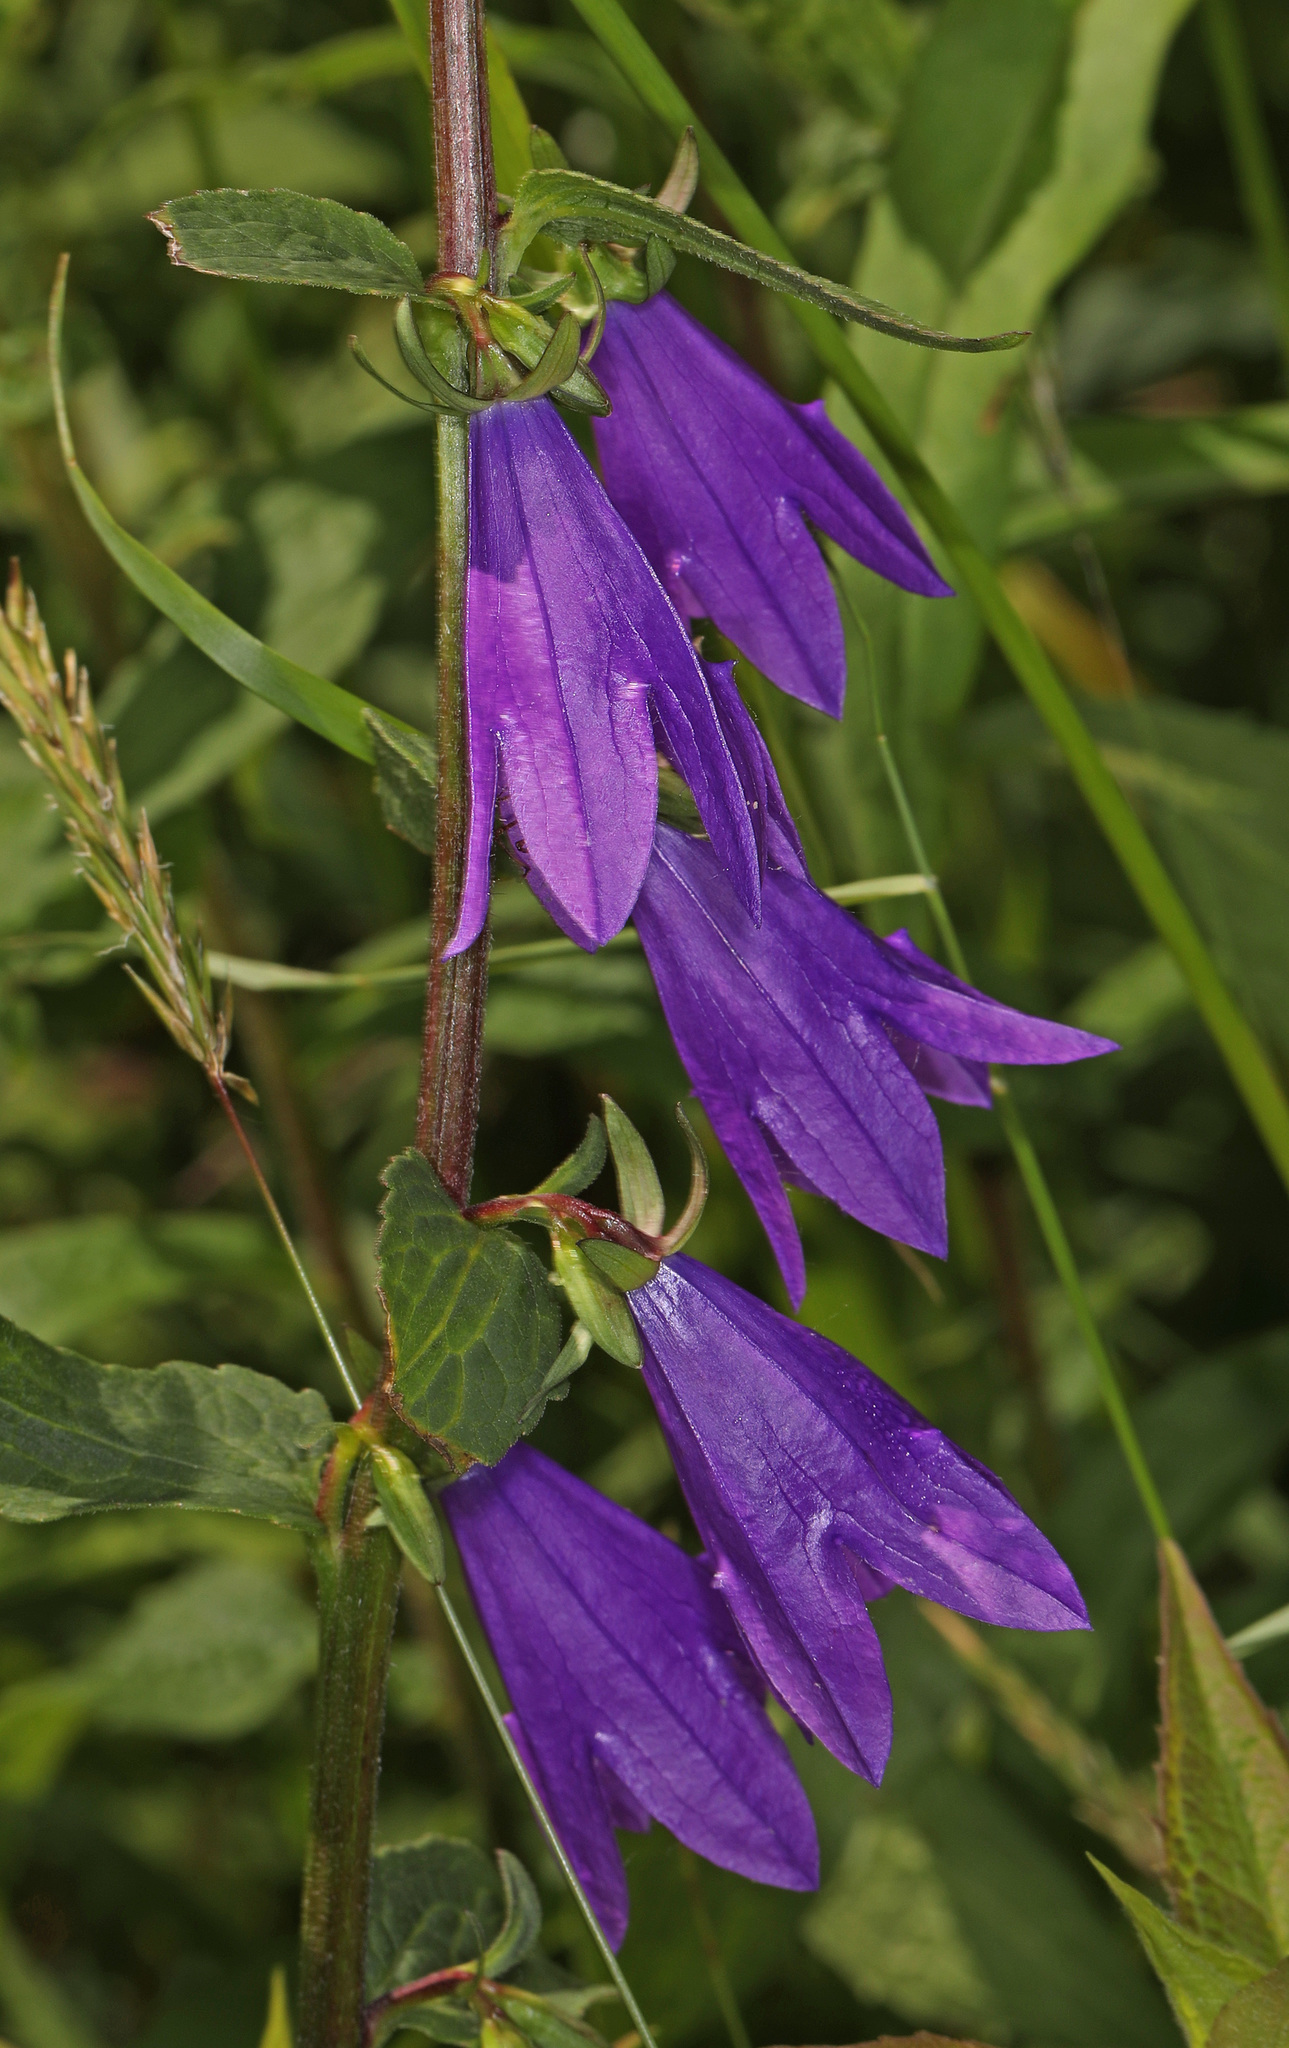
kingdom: Plantae
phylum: Tracheophyta
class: Magnoliopsida
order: Asterales
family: Campanulaceae
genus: Campanula
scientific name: Campanula rapunculoides
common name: Creeping bellflower
